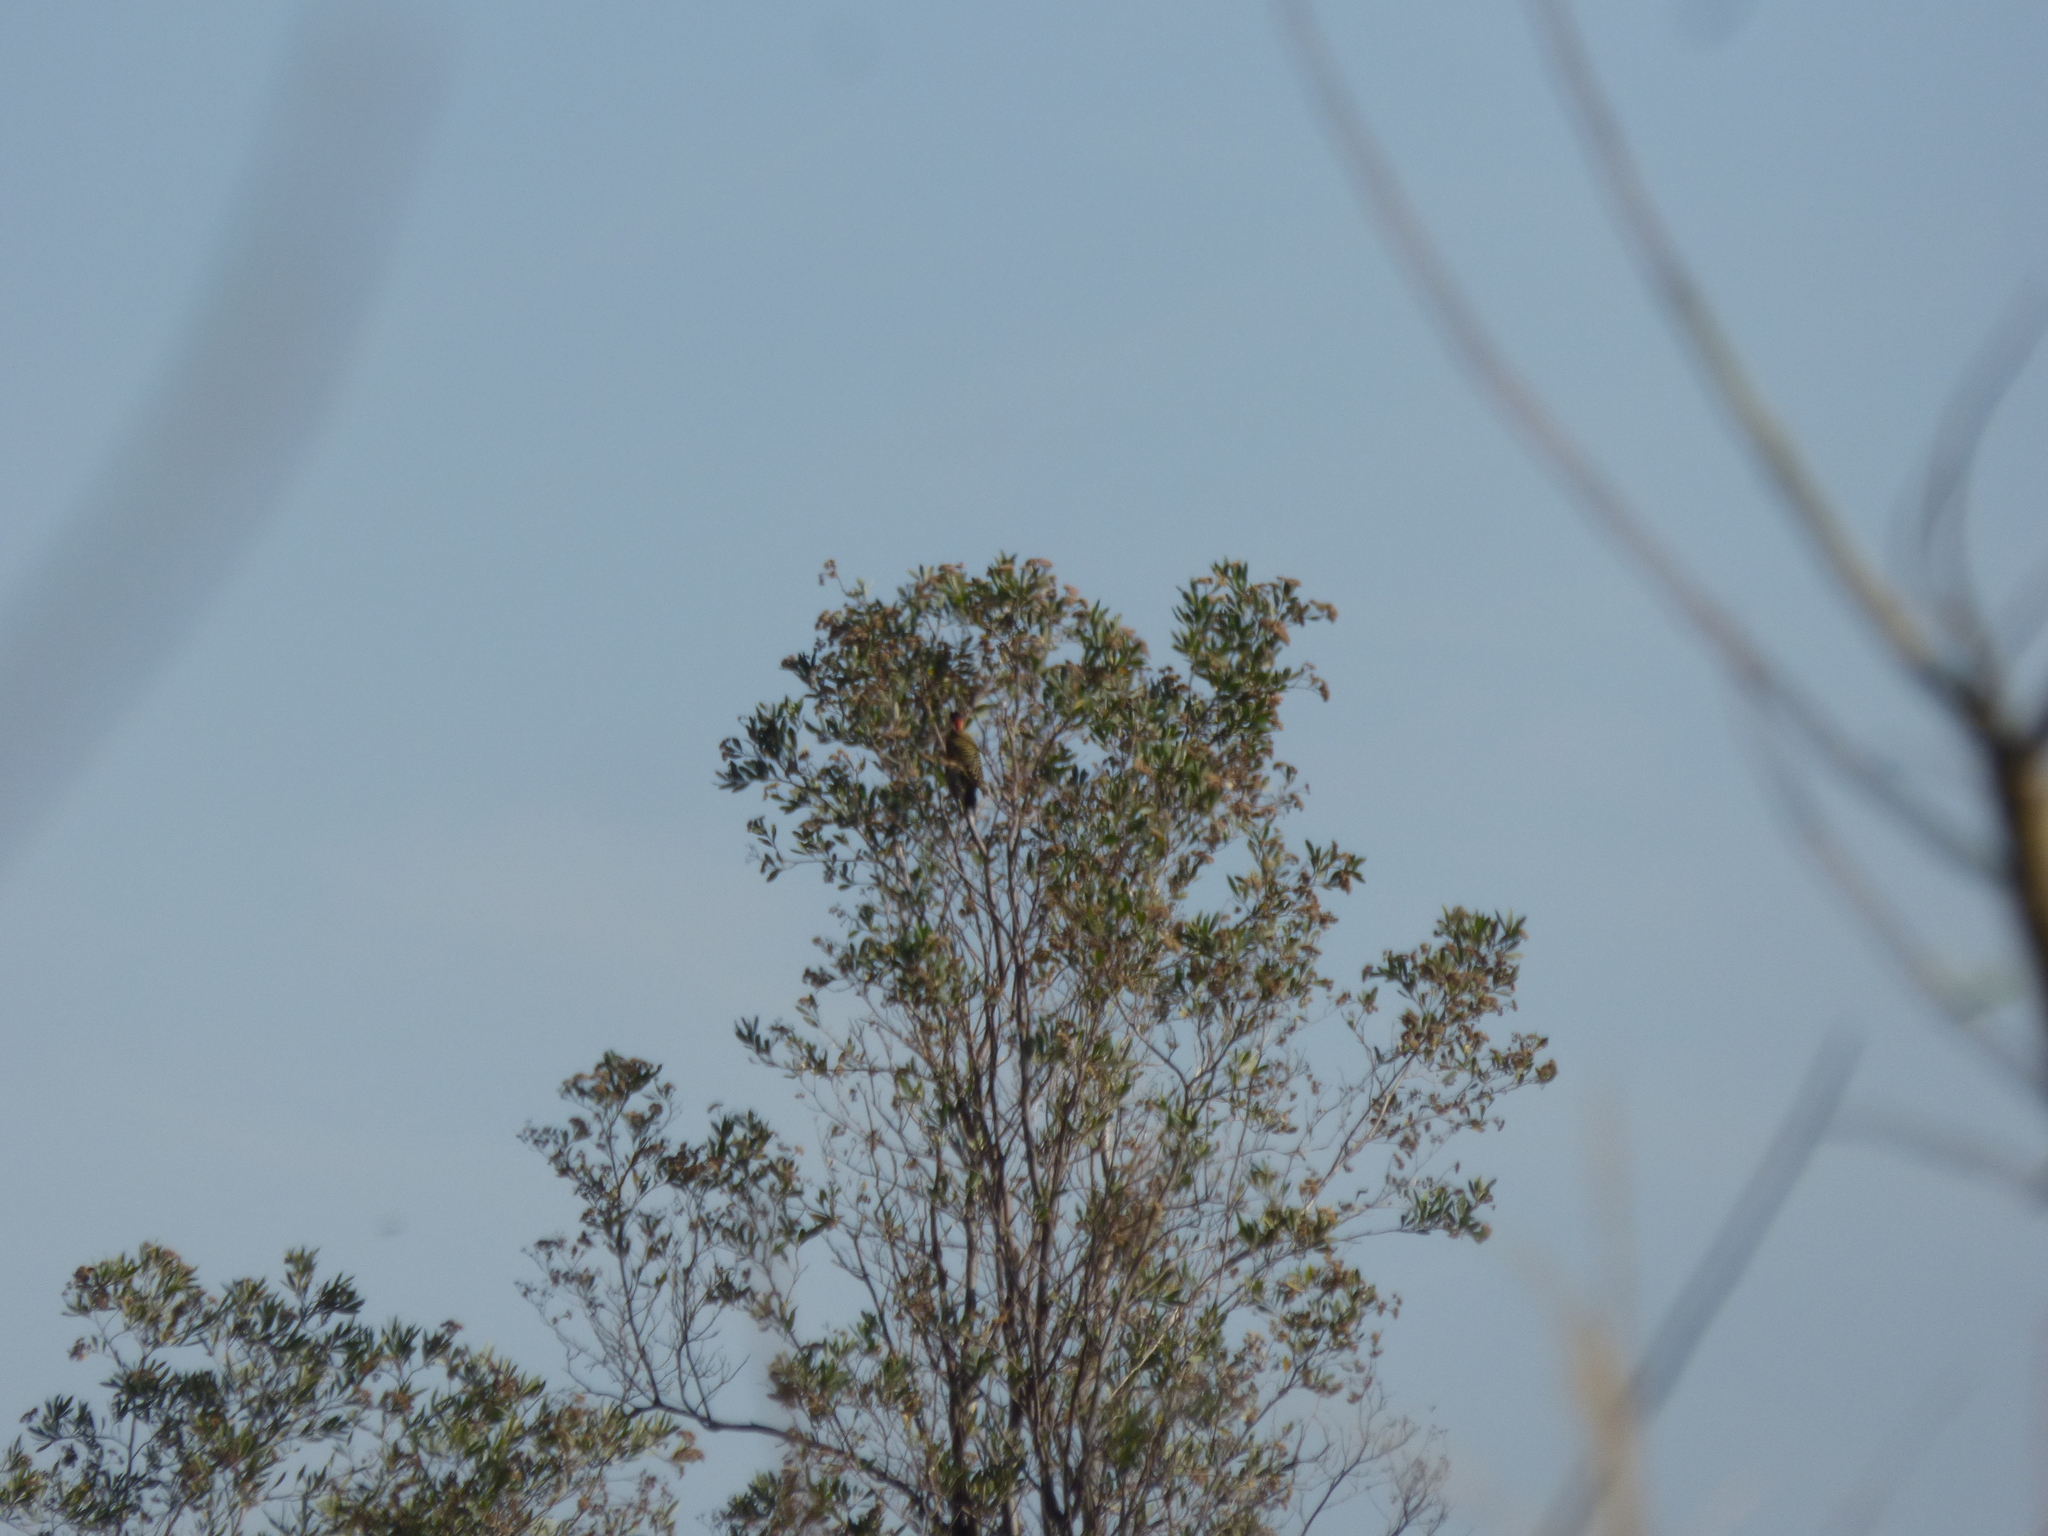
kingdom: Animalia
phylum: Chordata
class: Aves
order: Piciformes
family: Picidae
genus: Colaptes
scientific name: Colaptes melanochloros
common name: Green-barred woodpecker
